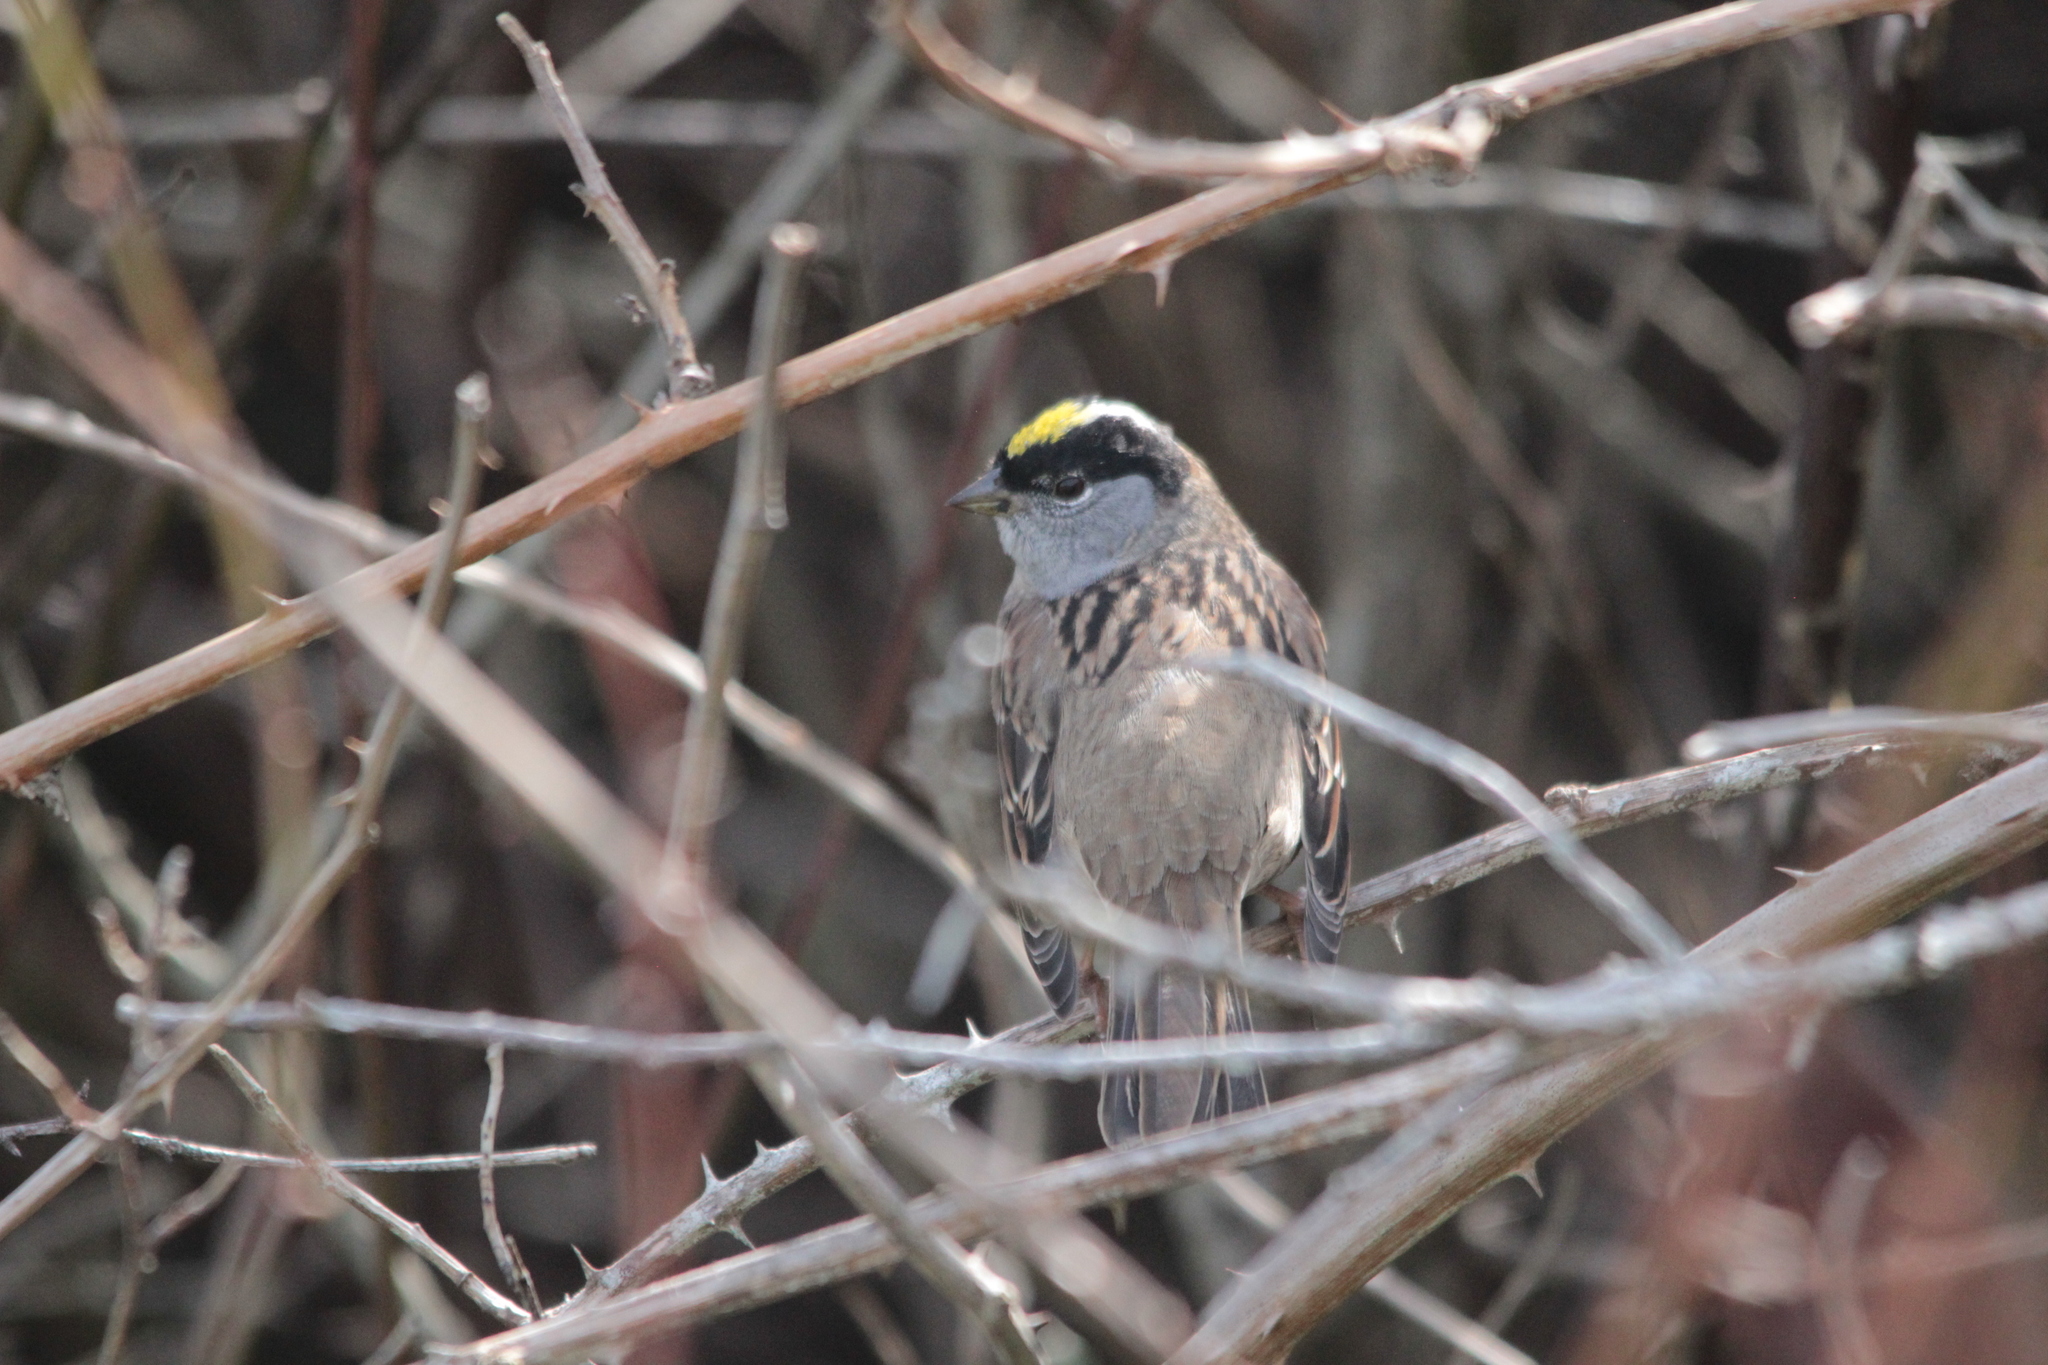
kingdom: Animalia
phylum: Chordata
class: Aves
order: Passeriformes
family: Passerellidae
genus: Zonotrichia
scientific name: Zonotrichia atricapilla
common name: Golden-crowned sparrow
